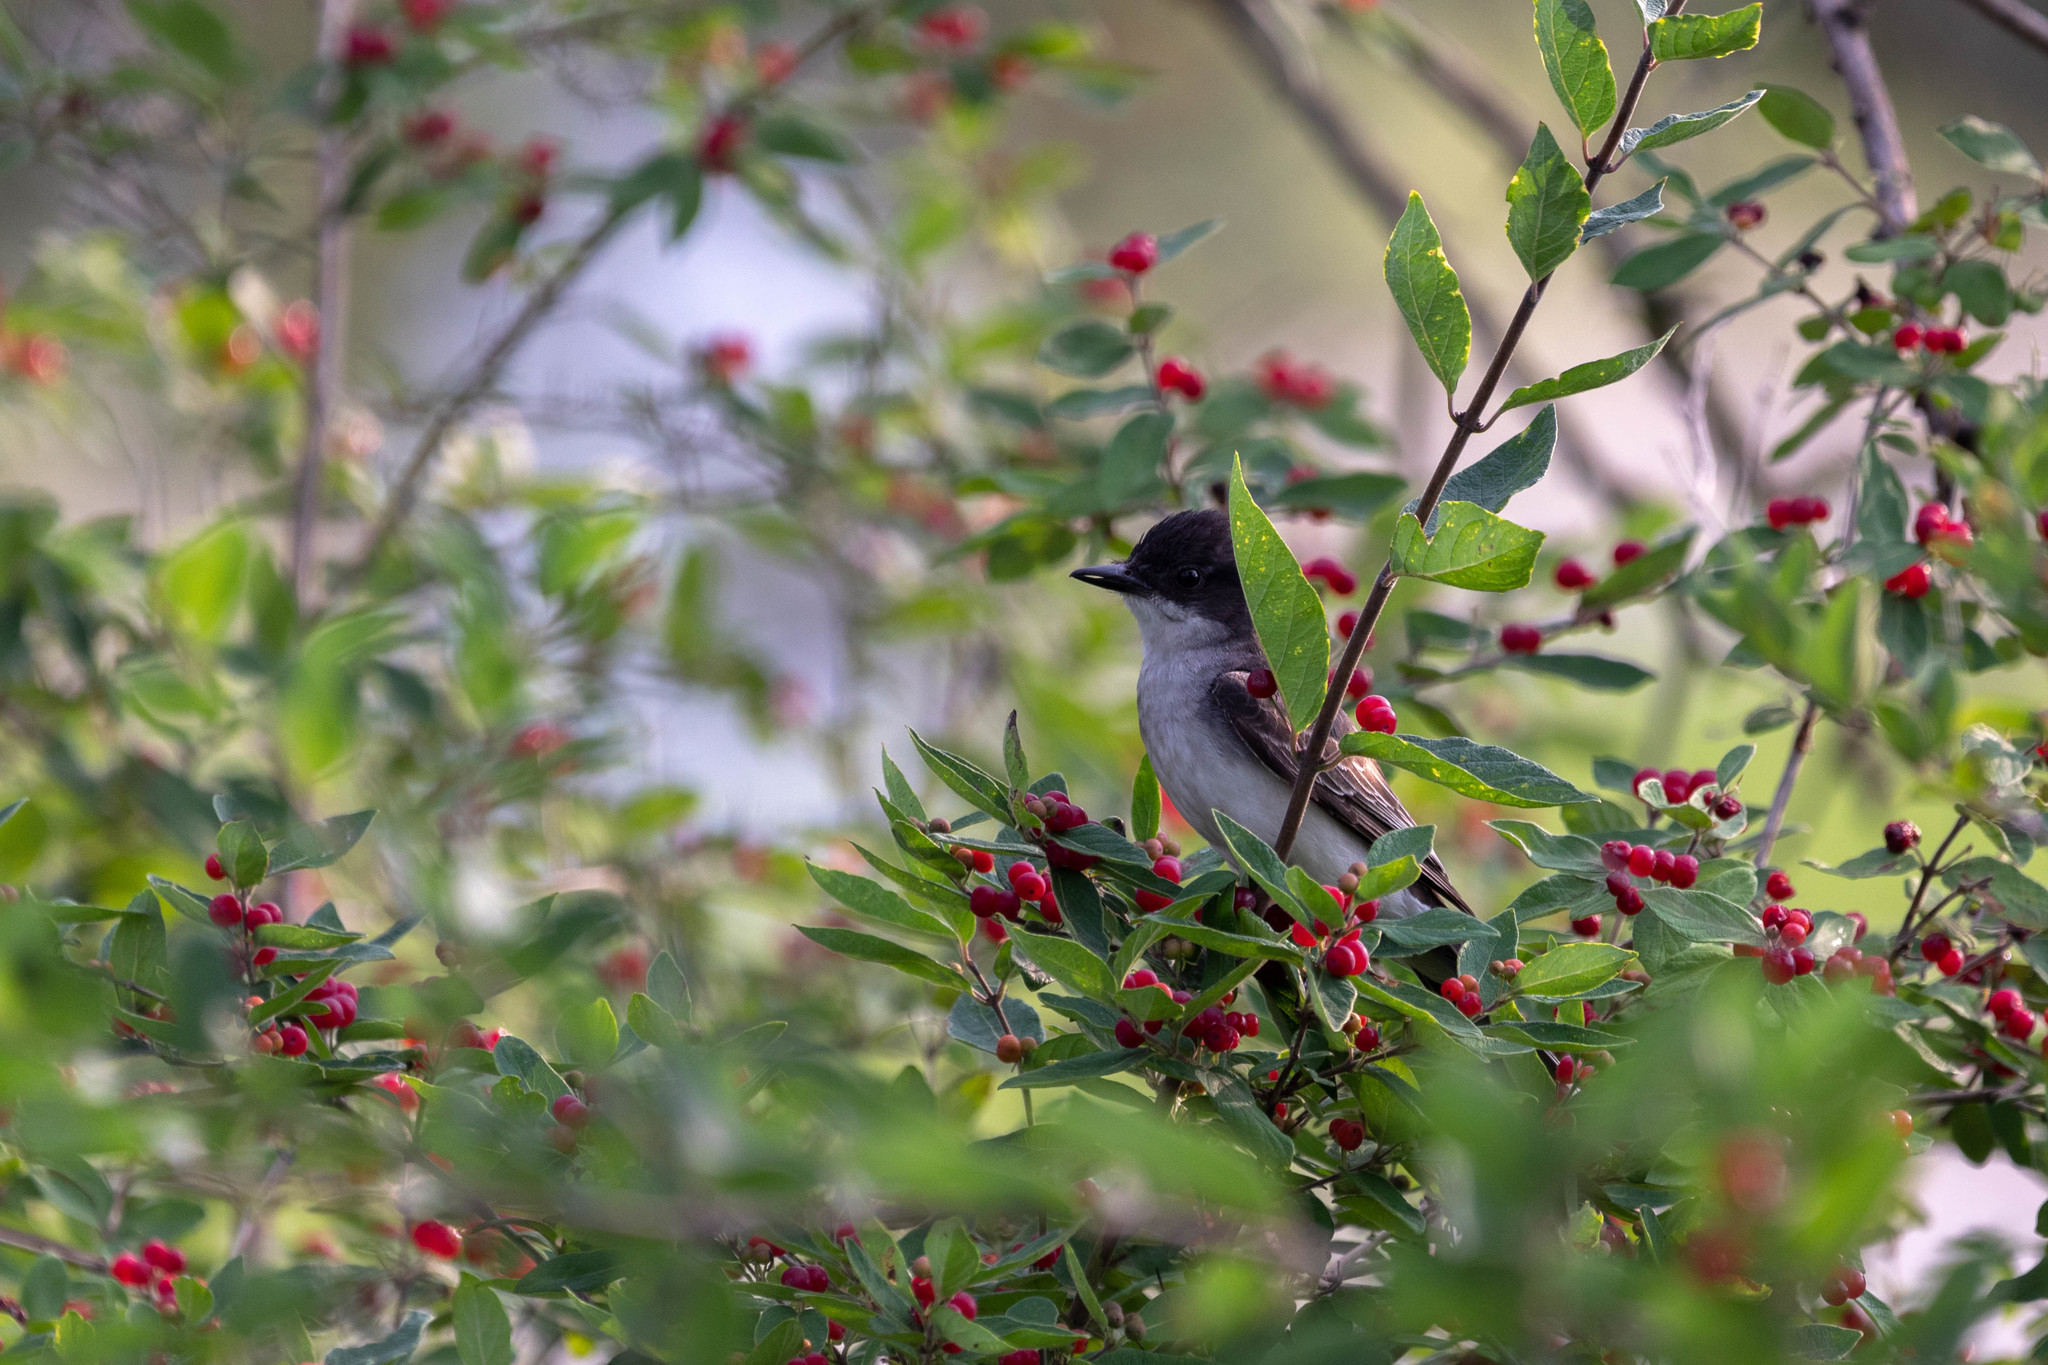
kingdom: Animalia
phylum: Chordata
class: Aves
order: Passeriformes
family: Tyrannidae
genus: Tyrannus
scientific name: Tyrannus tyrannus
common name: Eastern kingbird
